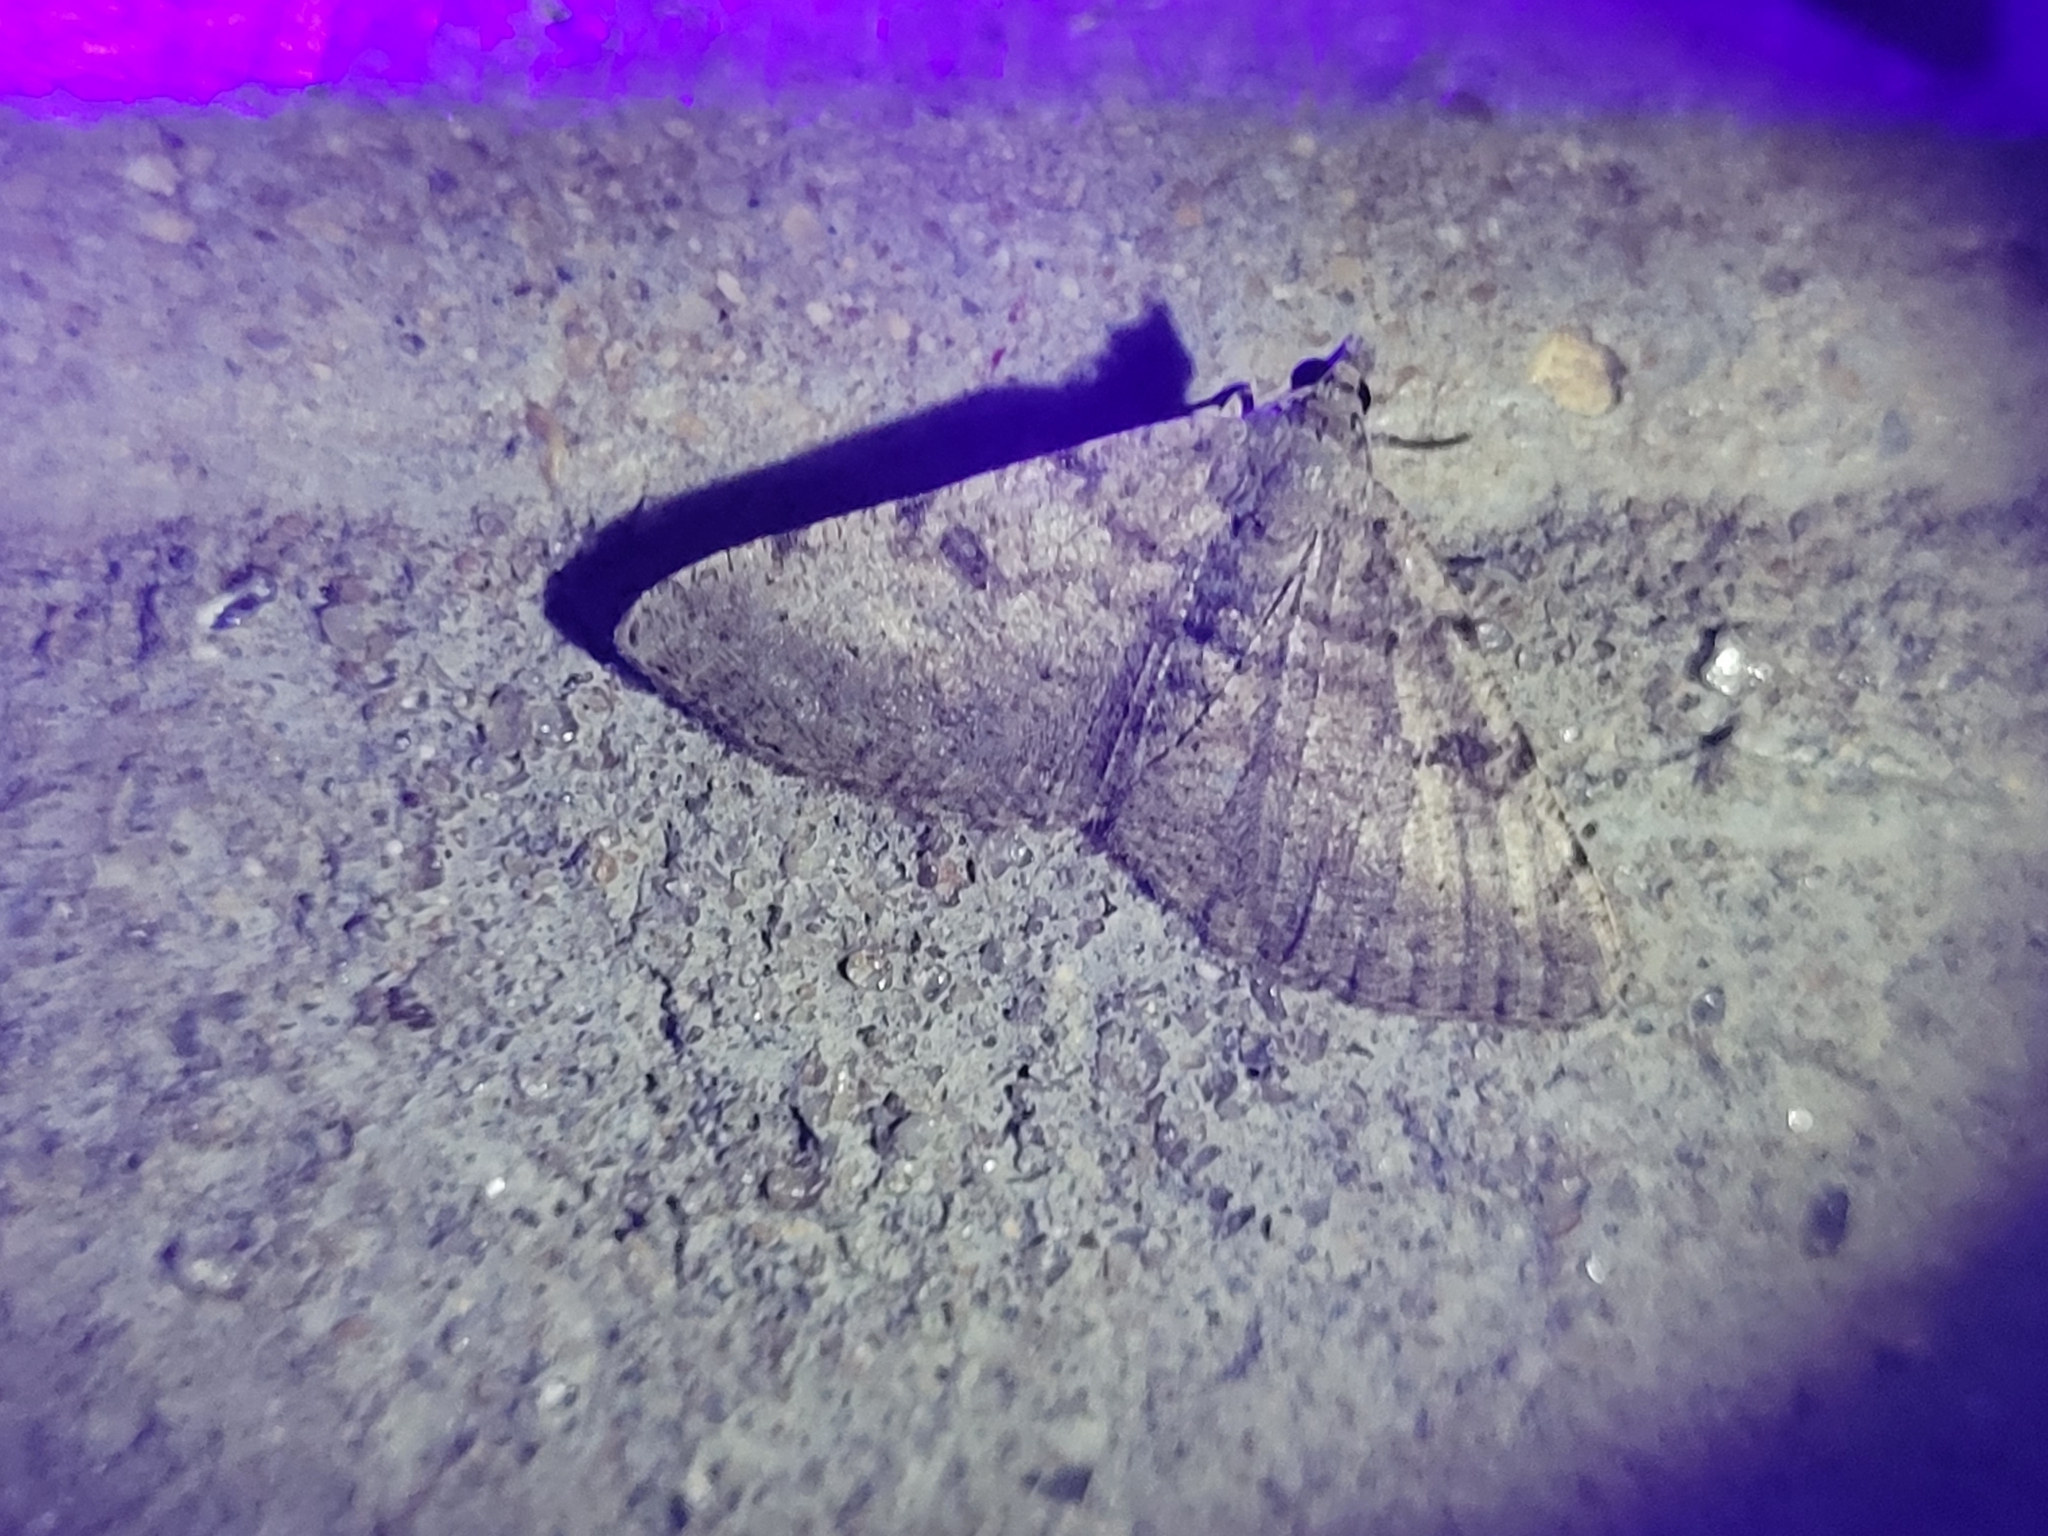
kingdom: Animalia
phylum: Arthropoda
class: Insecta
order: Lepidoptera
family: Geometridae
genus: Digrammia
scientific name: Digrammia gnophosaria
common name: Hollow-spotted angle
